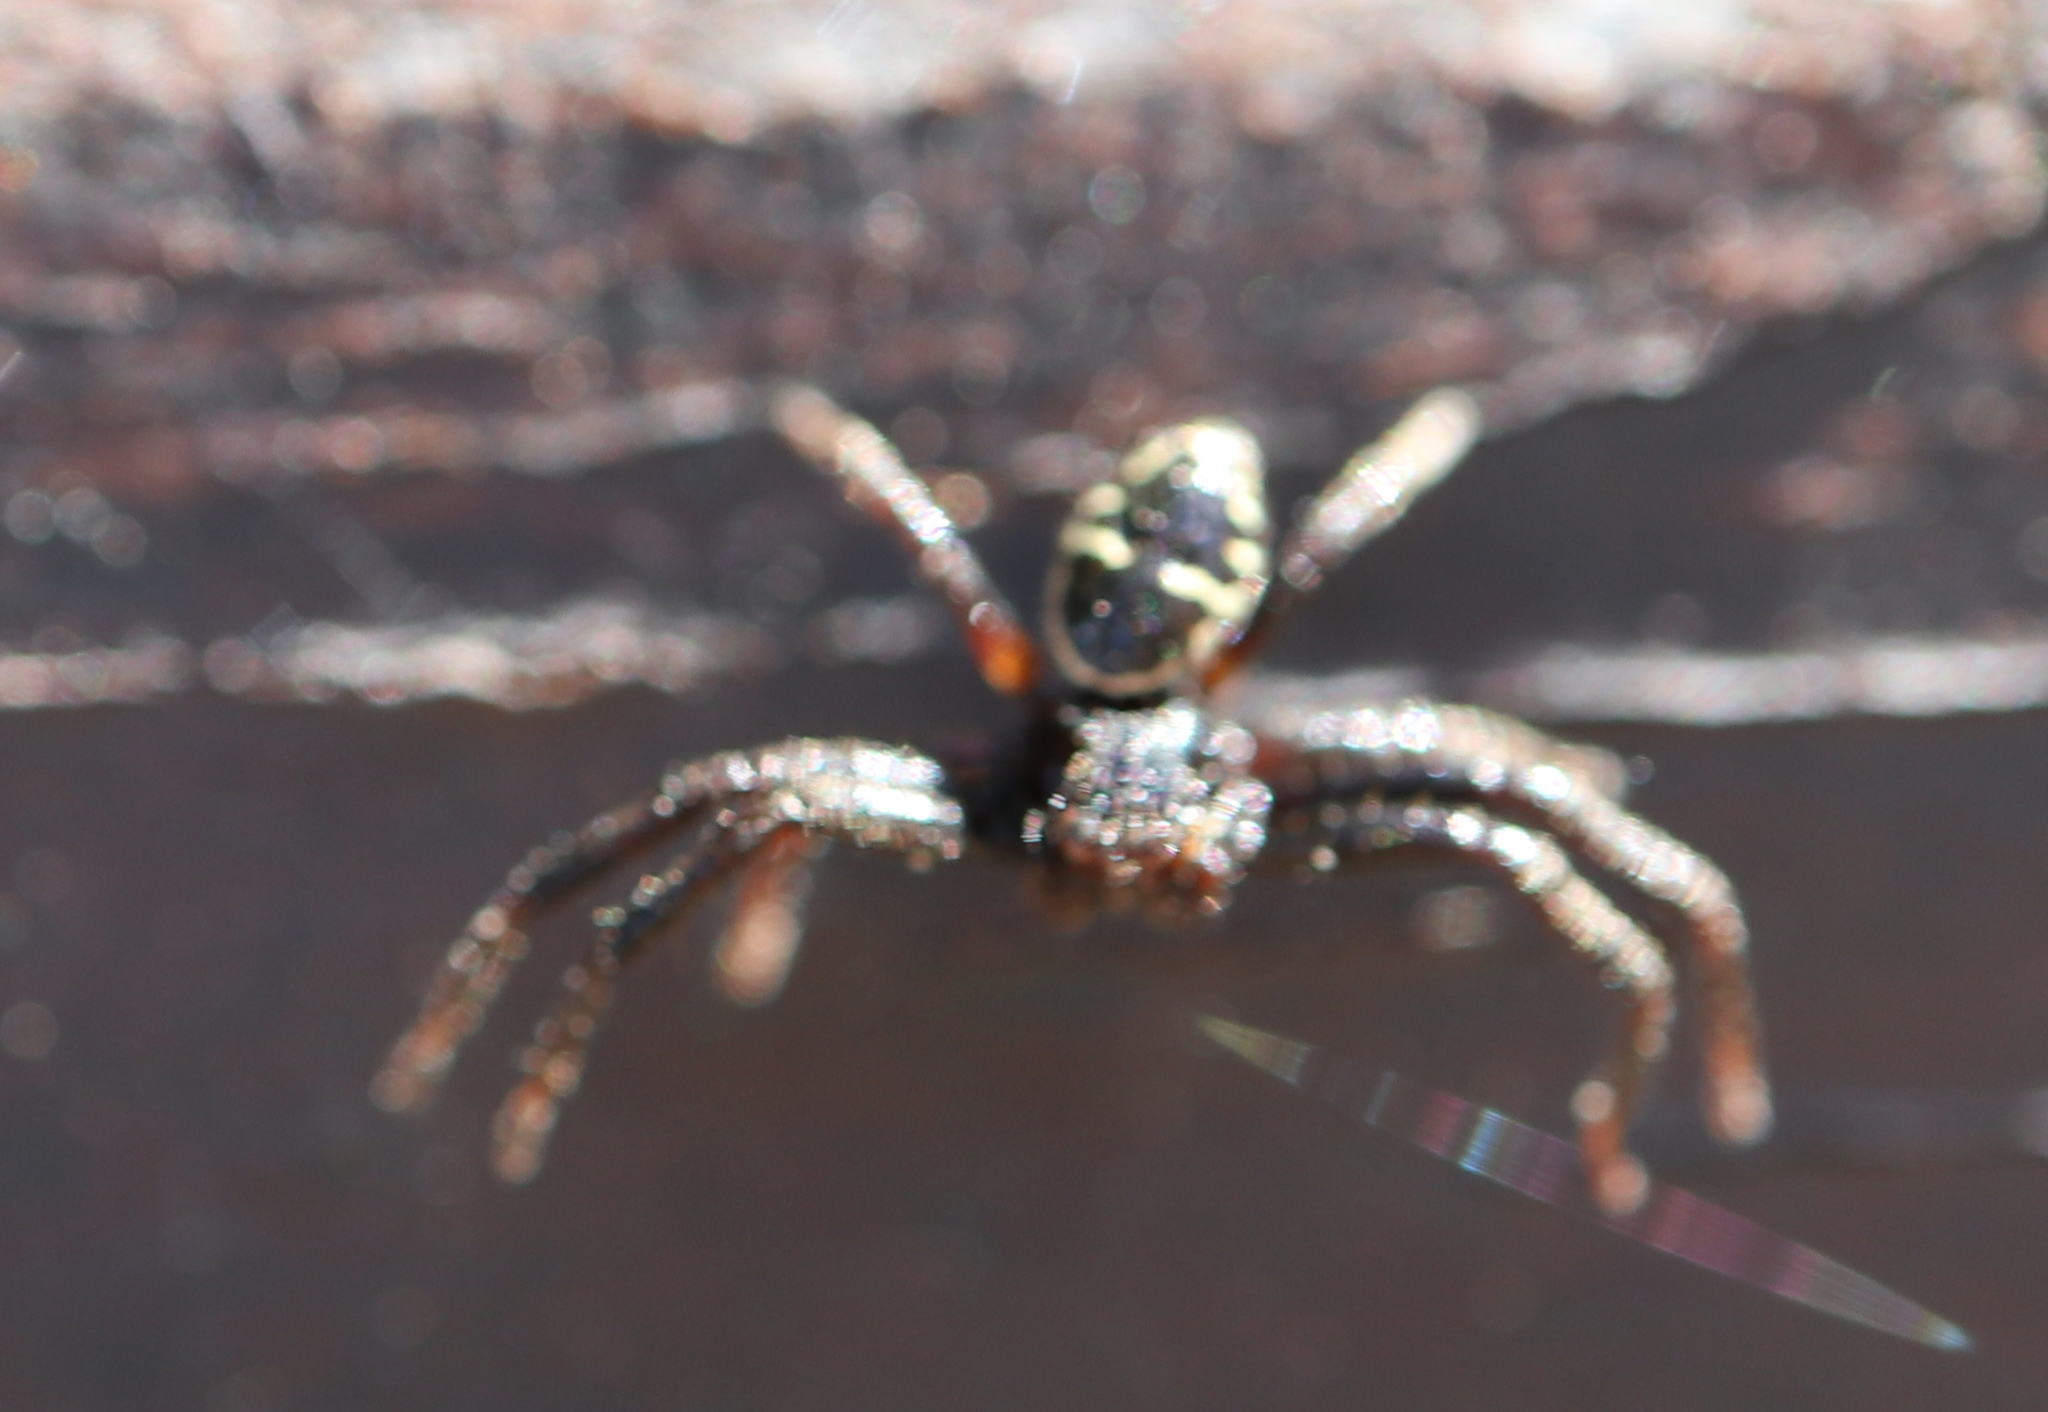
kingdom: Animalia
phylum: Arthropoda
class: Arachnida
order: Araneae
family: Thomisidae
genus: Synema
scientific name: Synema globosum
